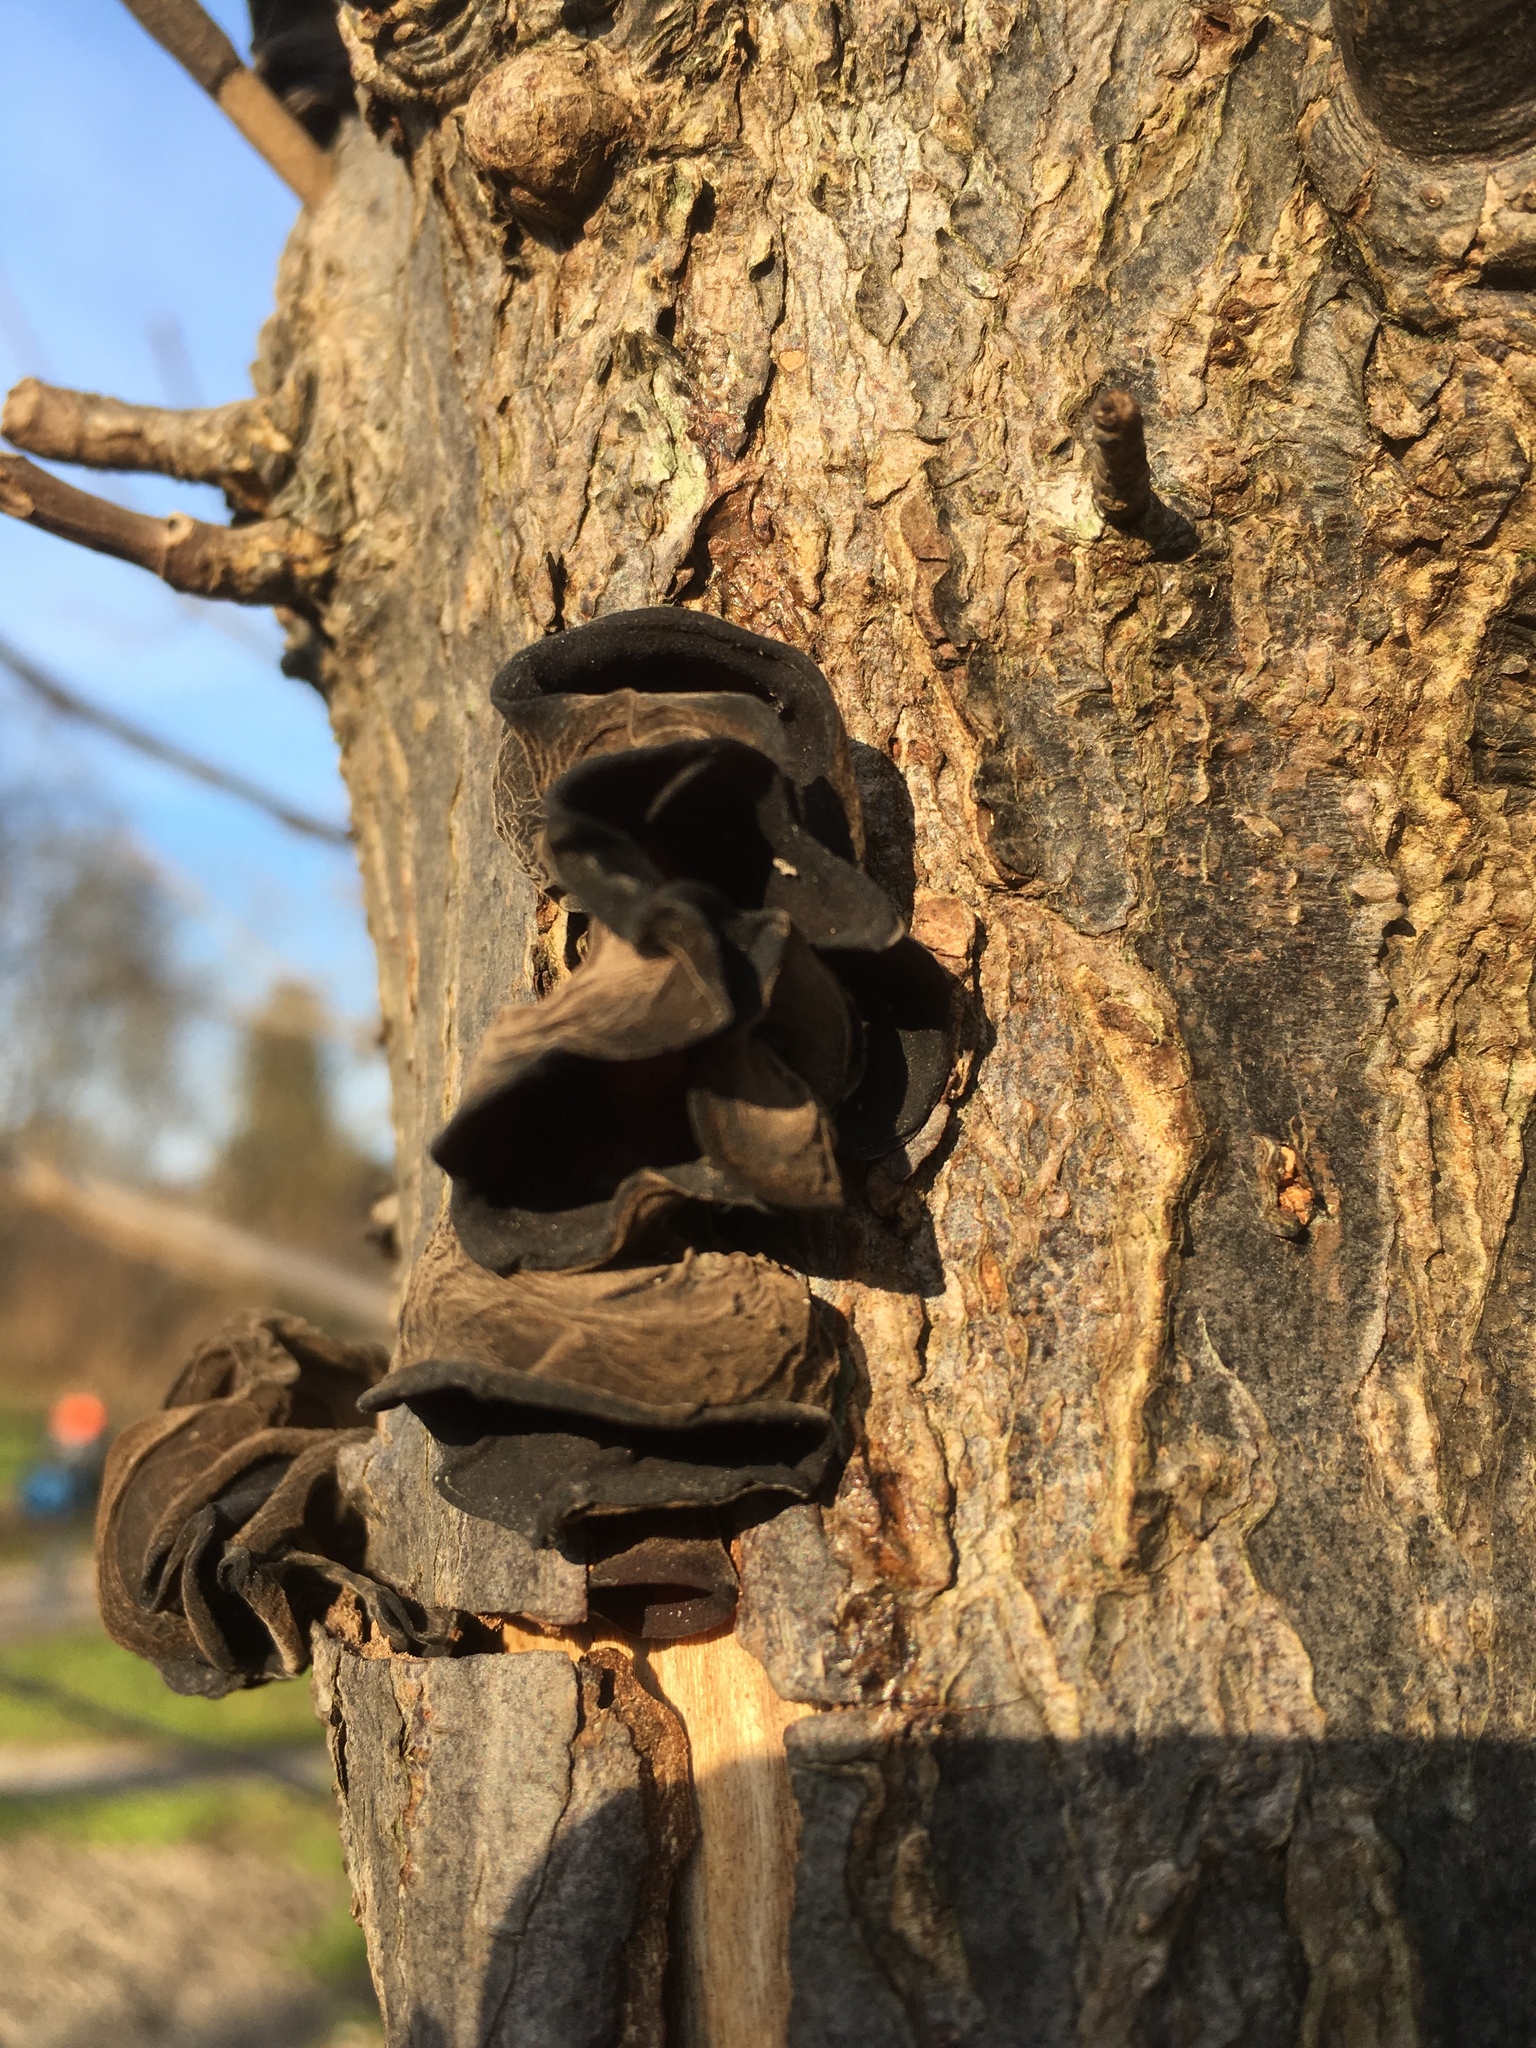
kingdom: Fungi
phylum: Basidiomycota
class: Agaricomycetes
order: Auriculariales
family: Auriculariaceae
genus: Auricularia
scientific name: Auricularia auricula-judae
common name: Jelly ear
